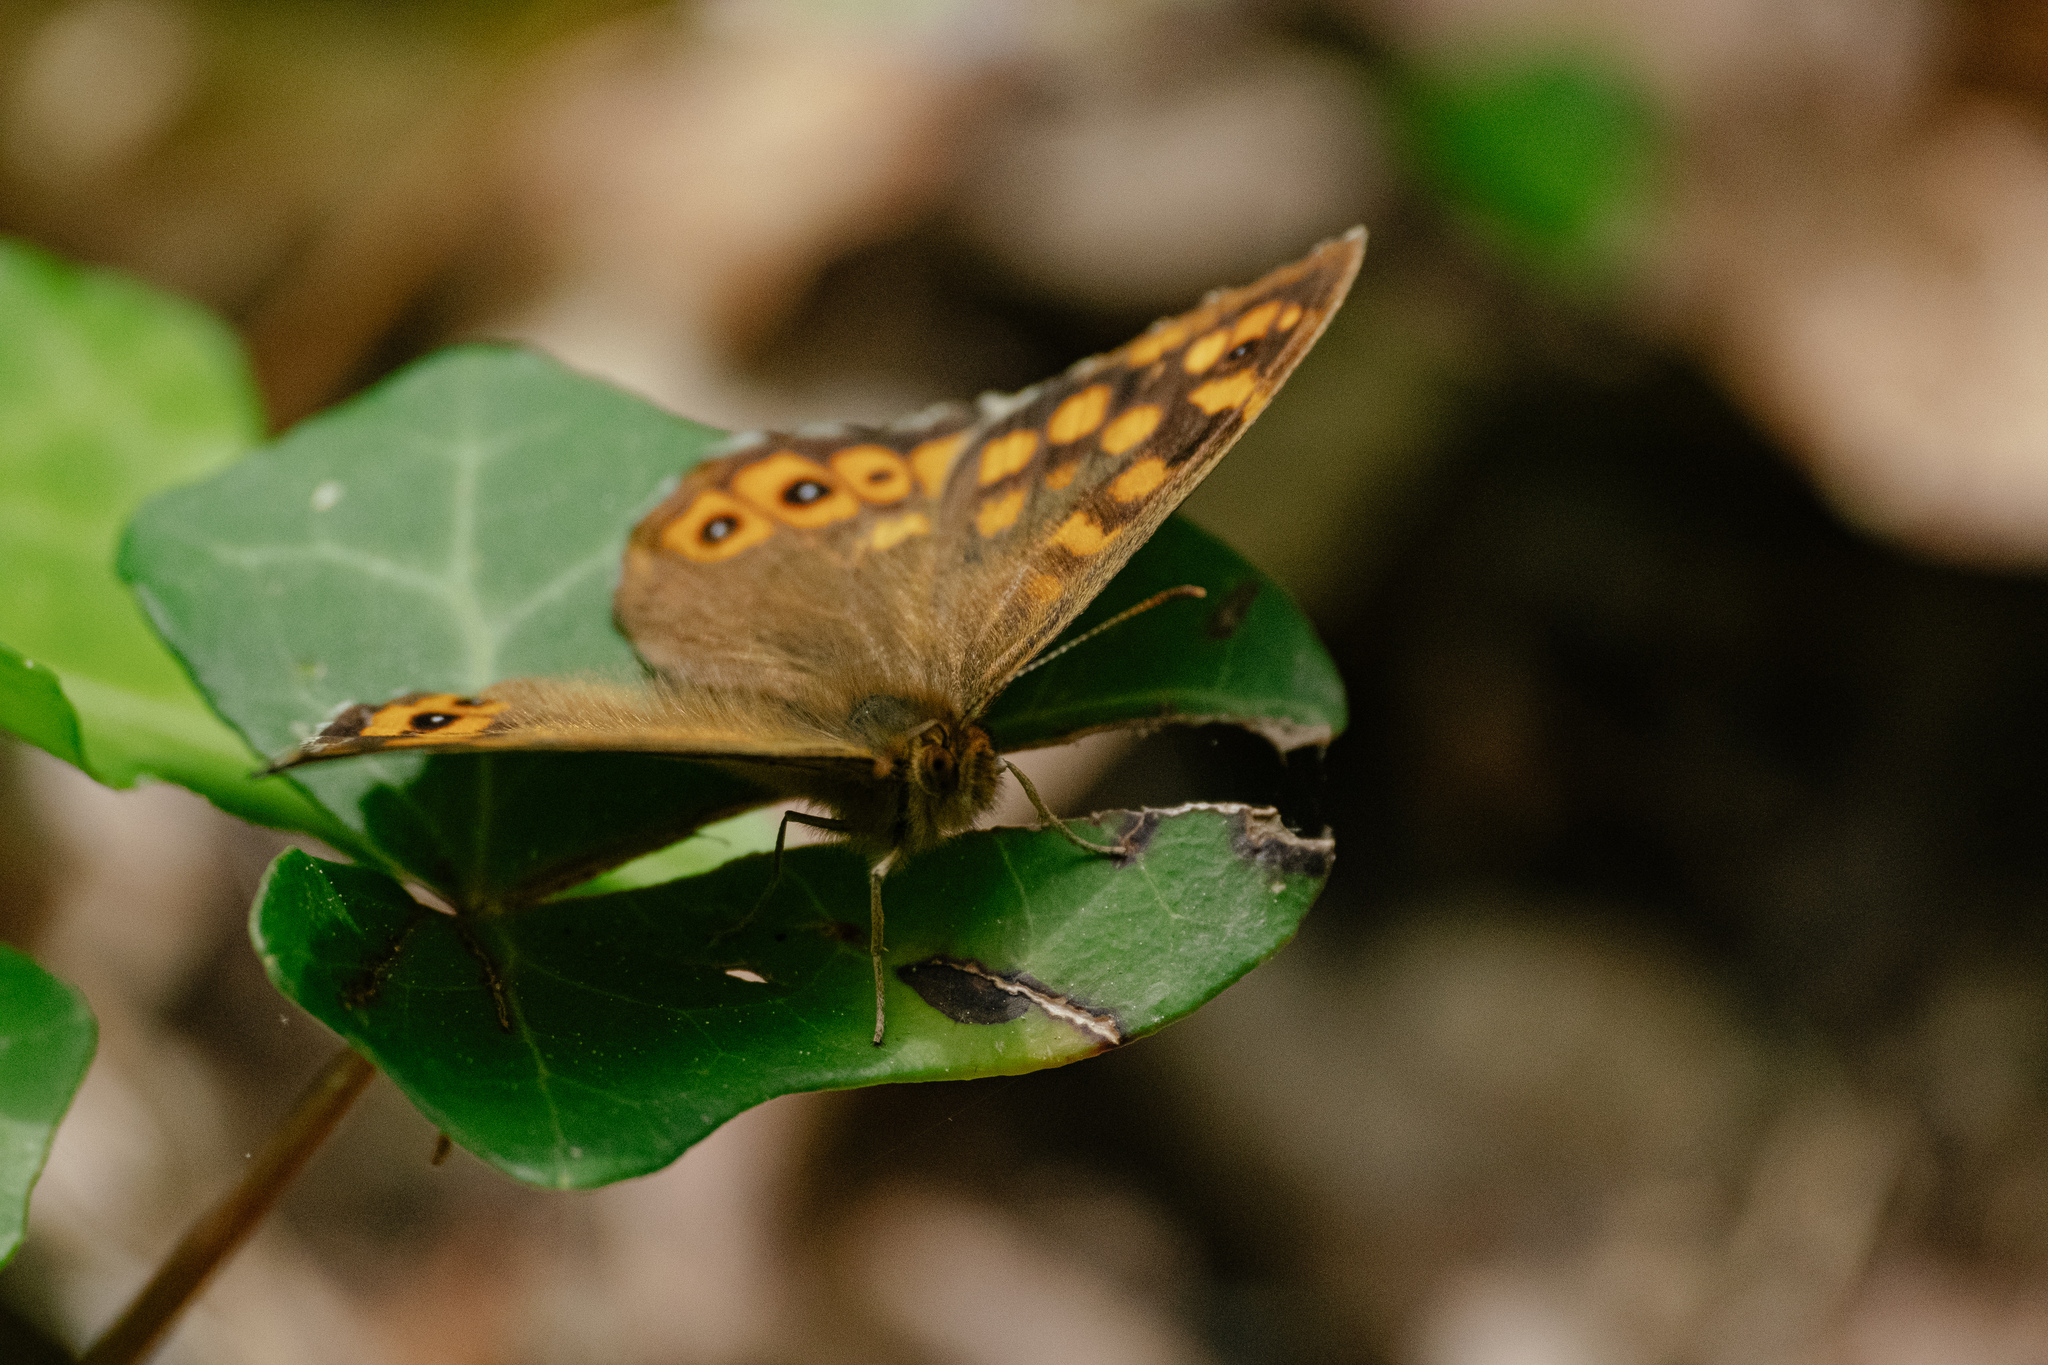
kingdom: Animalia
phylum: Arthropoda
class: Insecta
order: Lepidoptera
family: Nymphalidae
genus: Pararge
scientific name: Pararge aegeria
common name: Speckled wood
